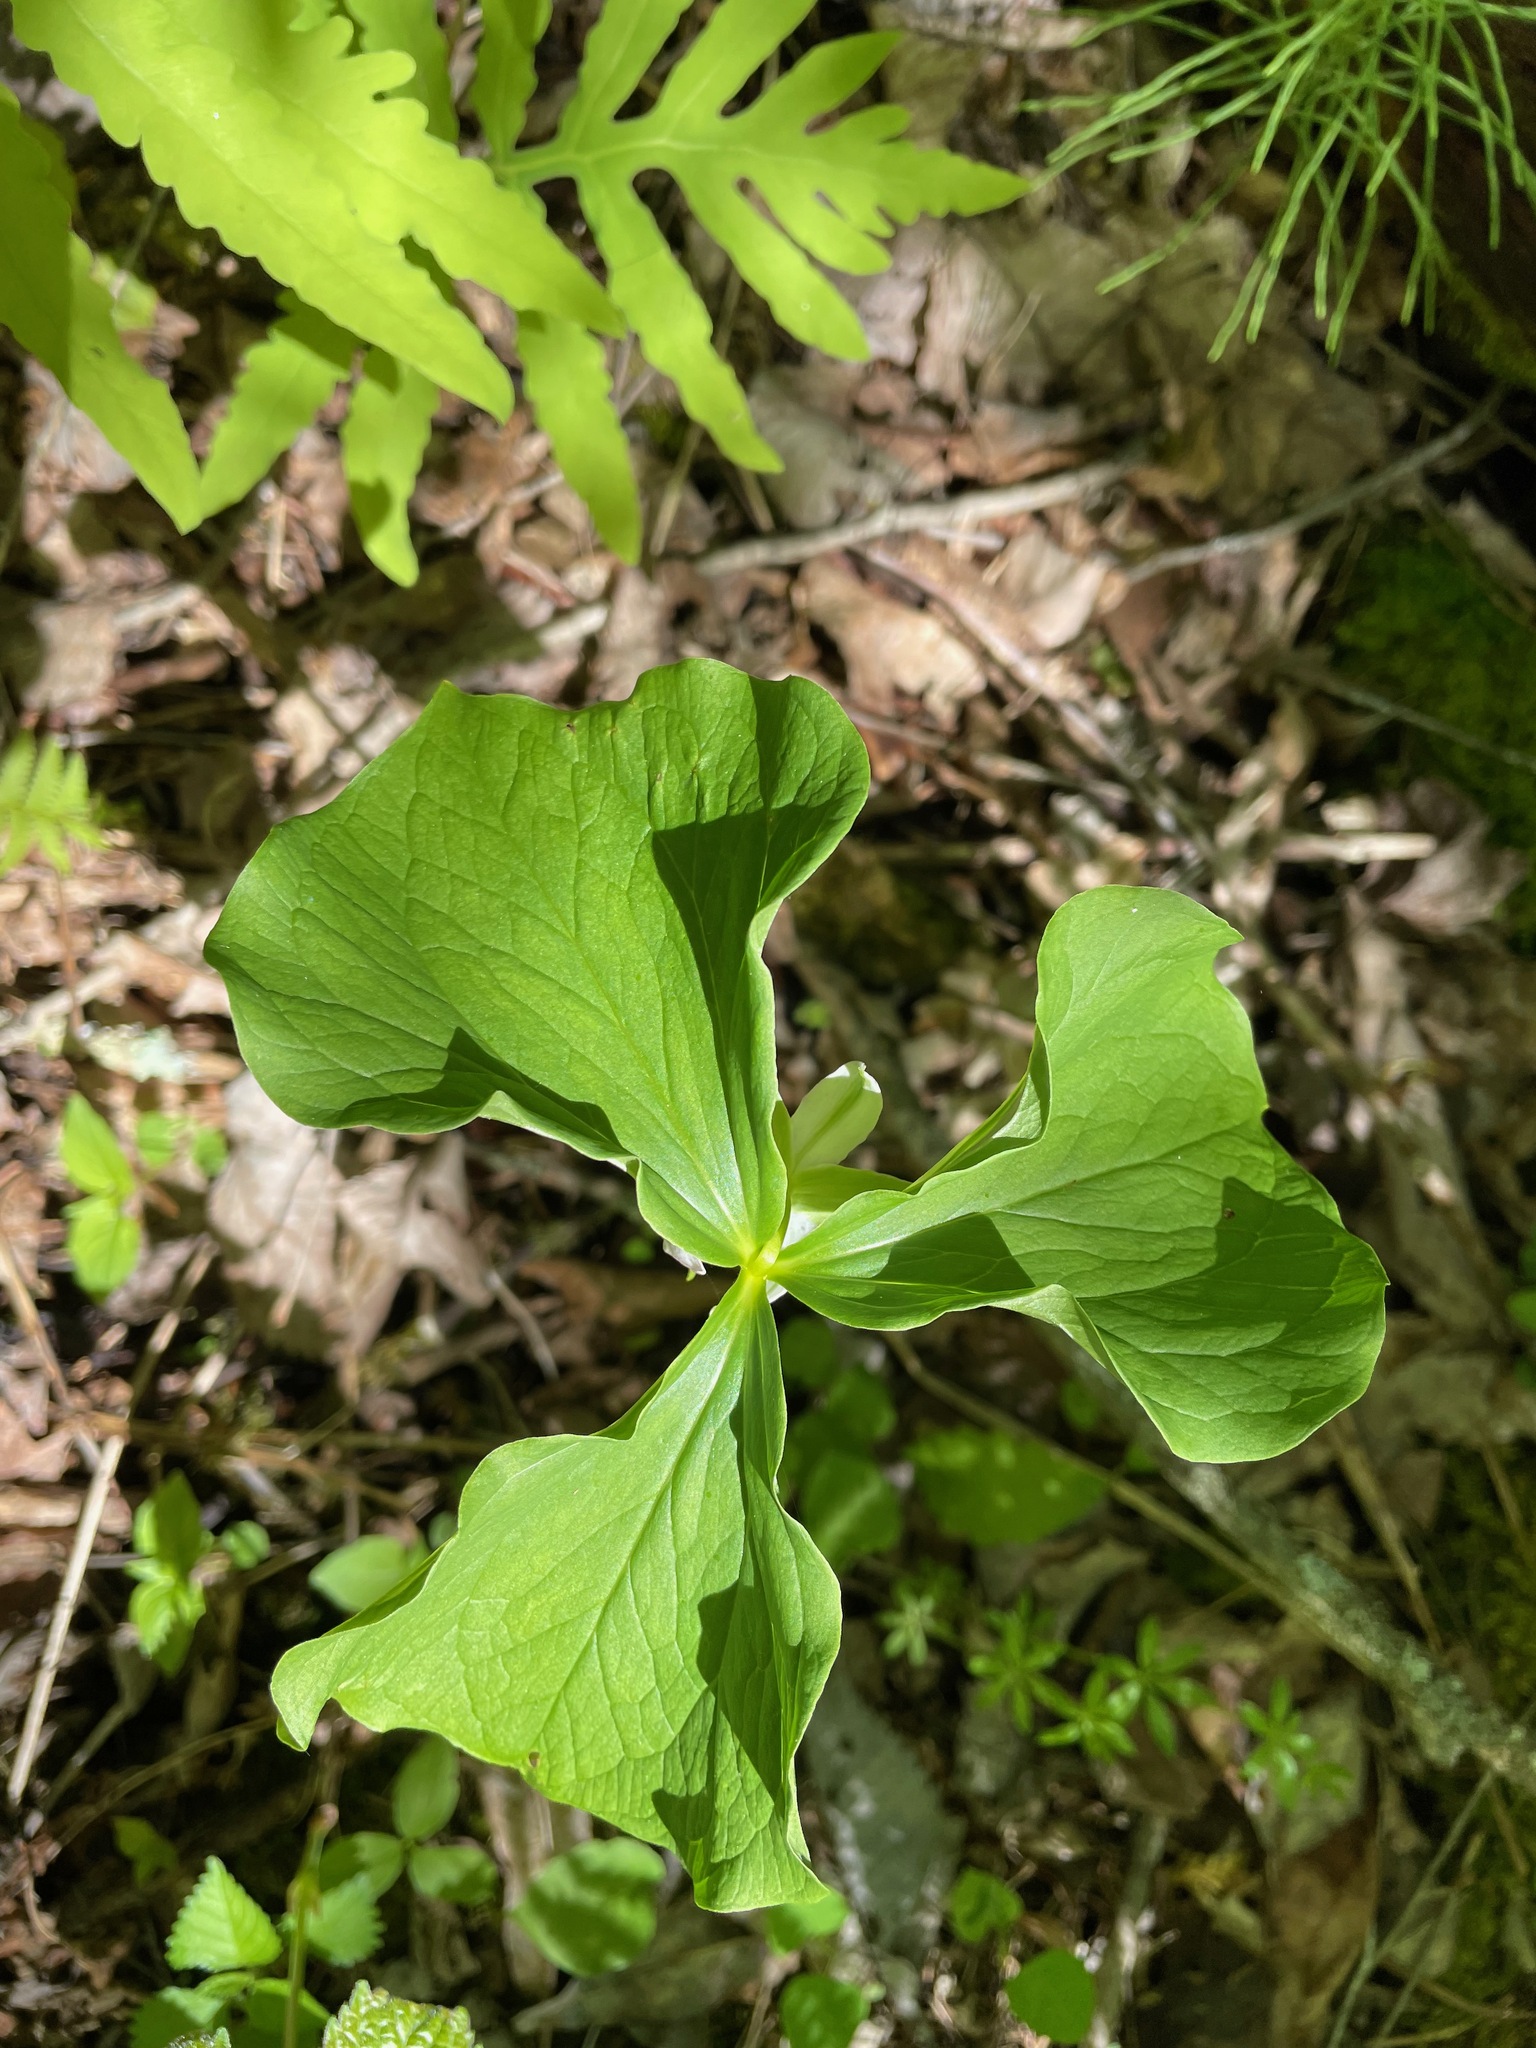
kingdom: Plantae
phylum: Tracheophyta
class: Liliopsida
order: Liliales
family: Melanthiaceae
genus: Trillium
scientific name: Trillium cernuum
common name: Nodding trillium
